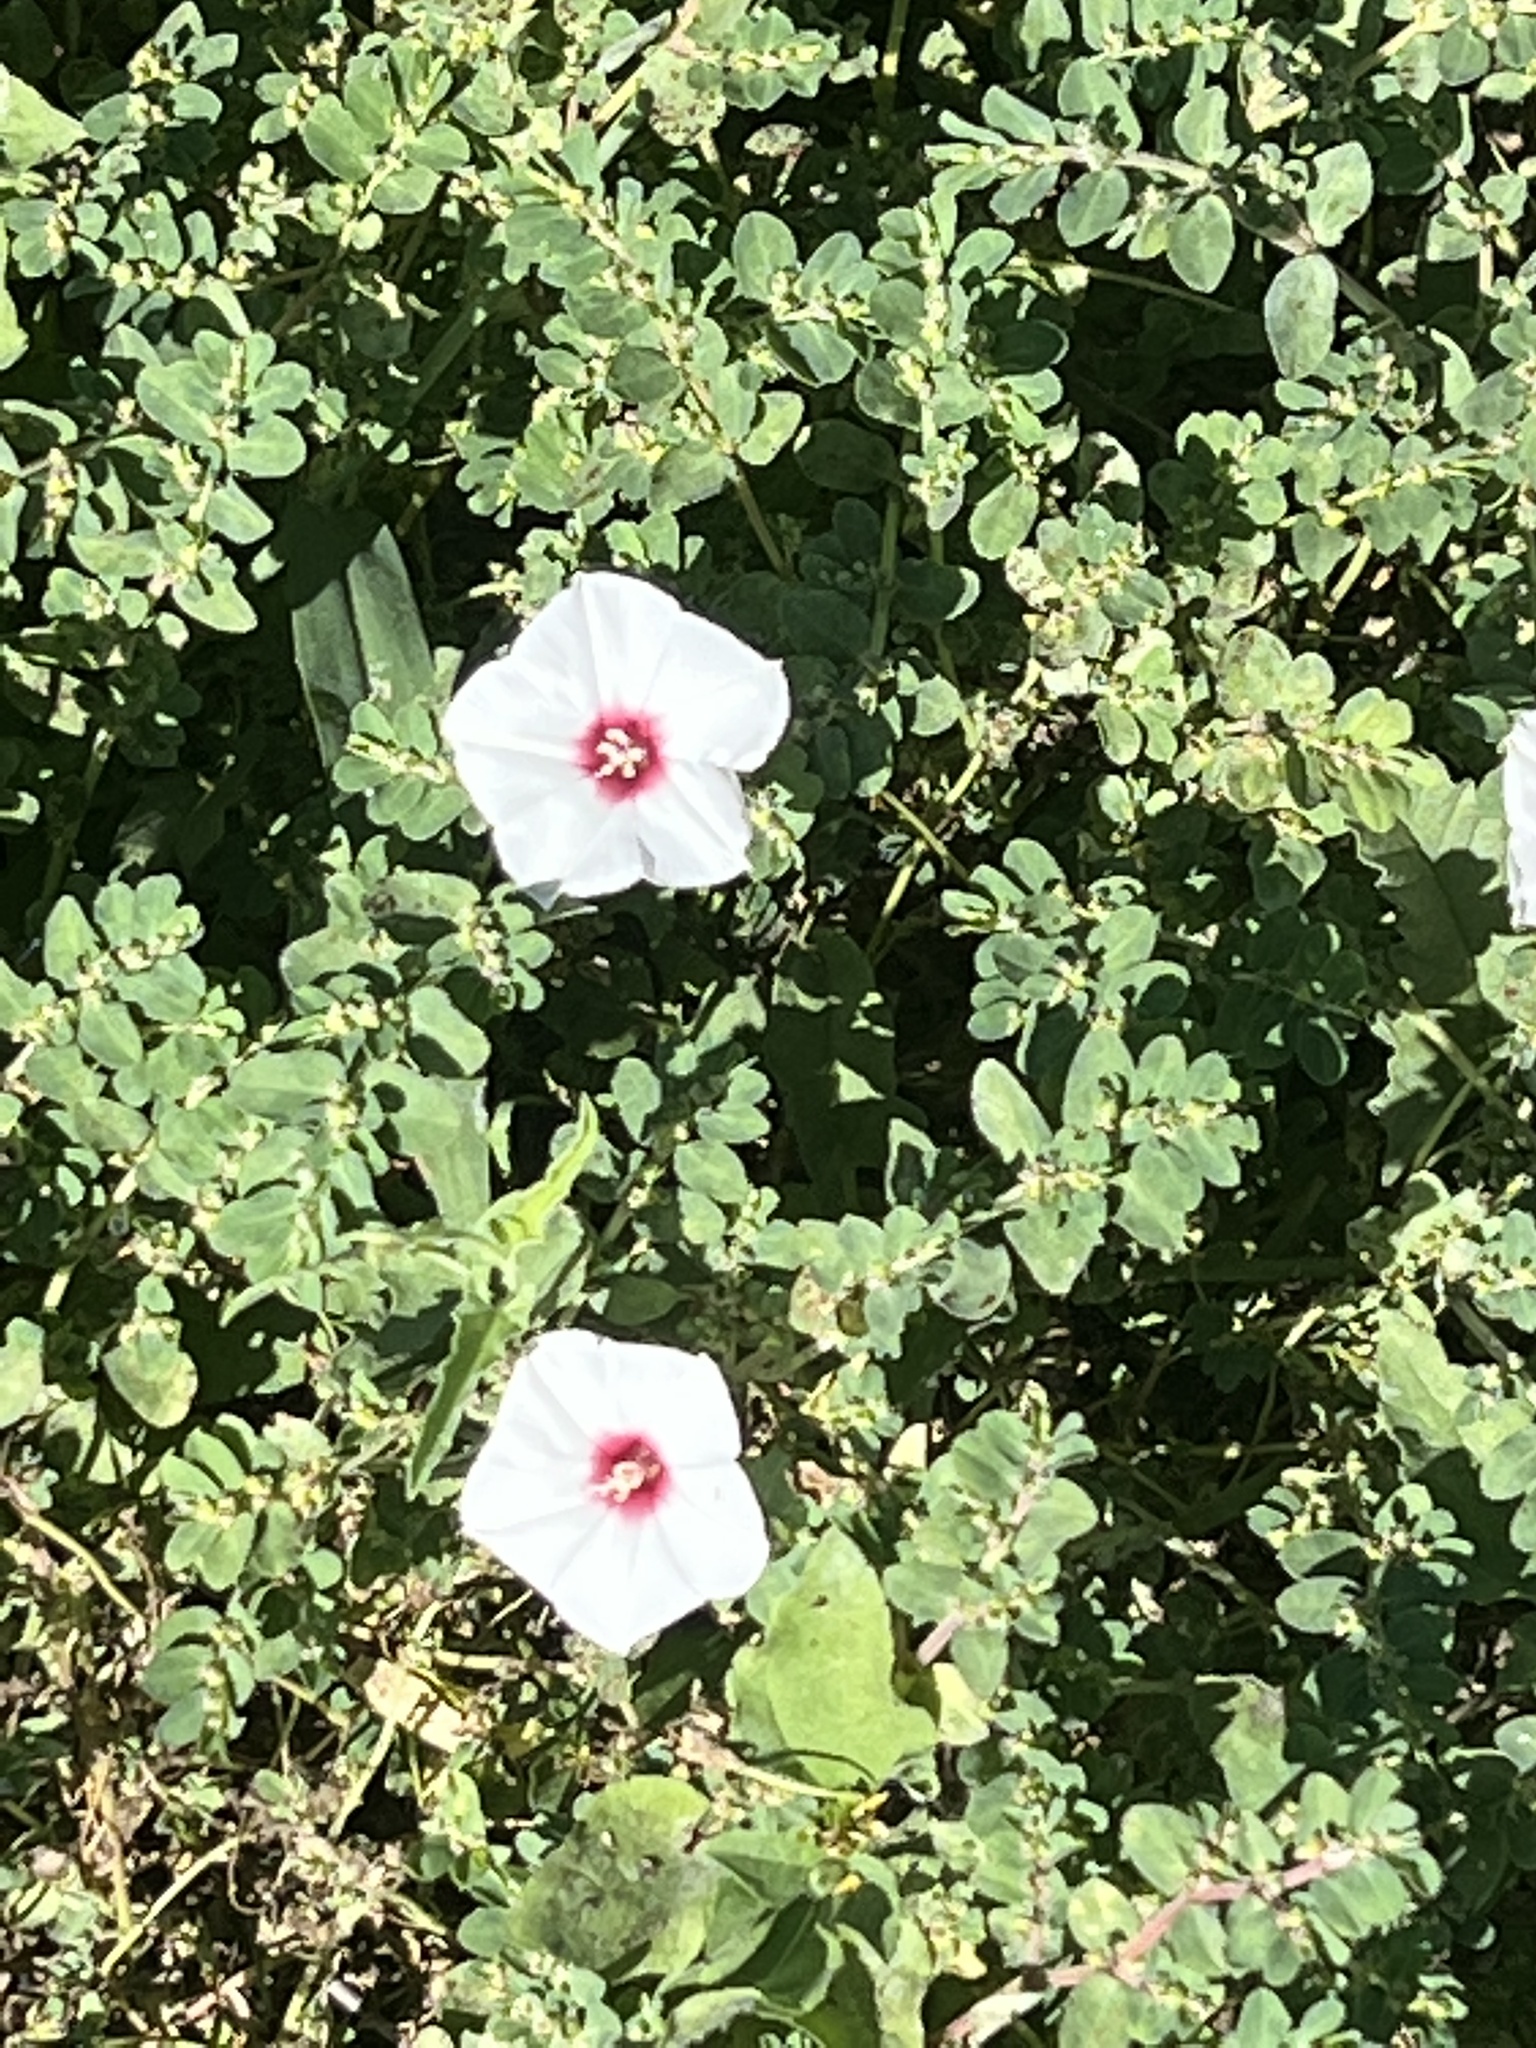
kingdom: Plantae
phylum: Tracheophyta
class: Magnoliopsida
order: Solanales
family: Convolvulaceae
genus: Convolvulus
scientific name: Convolvulus equitans
